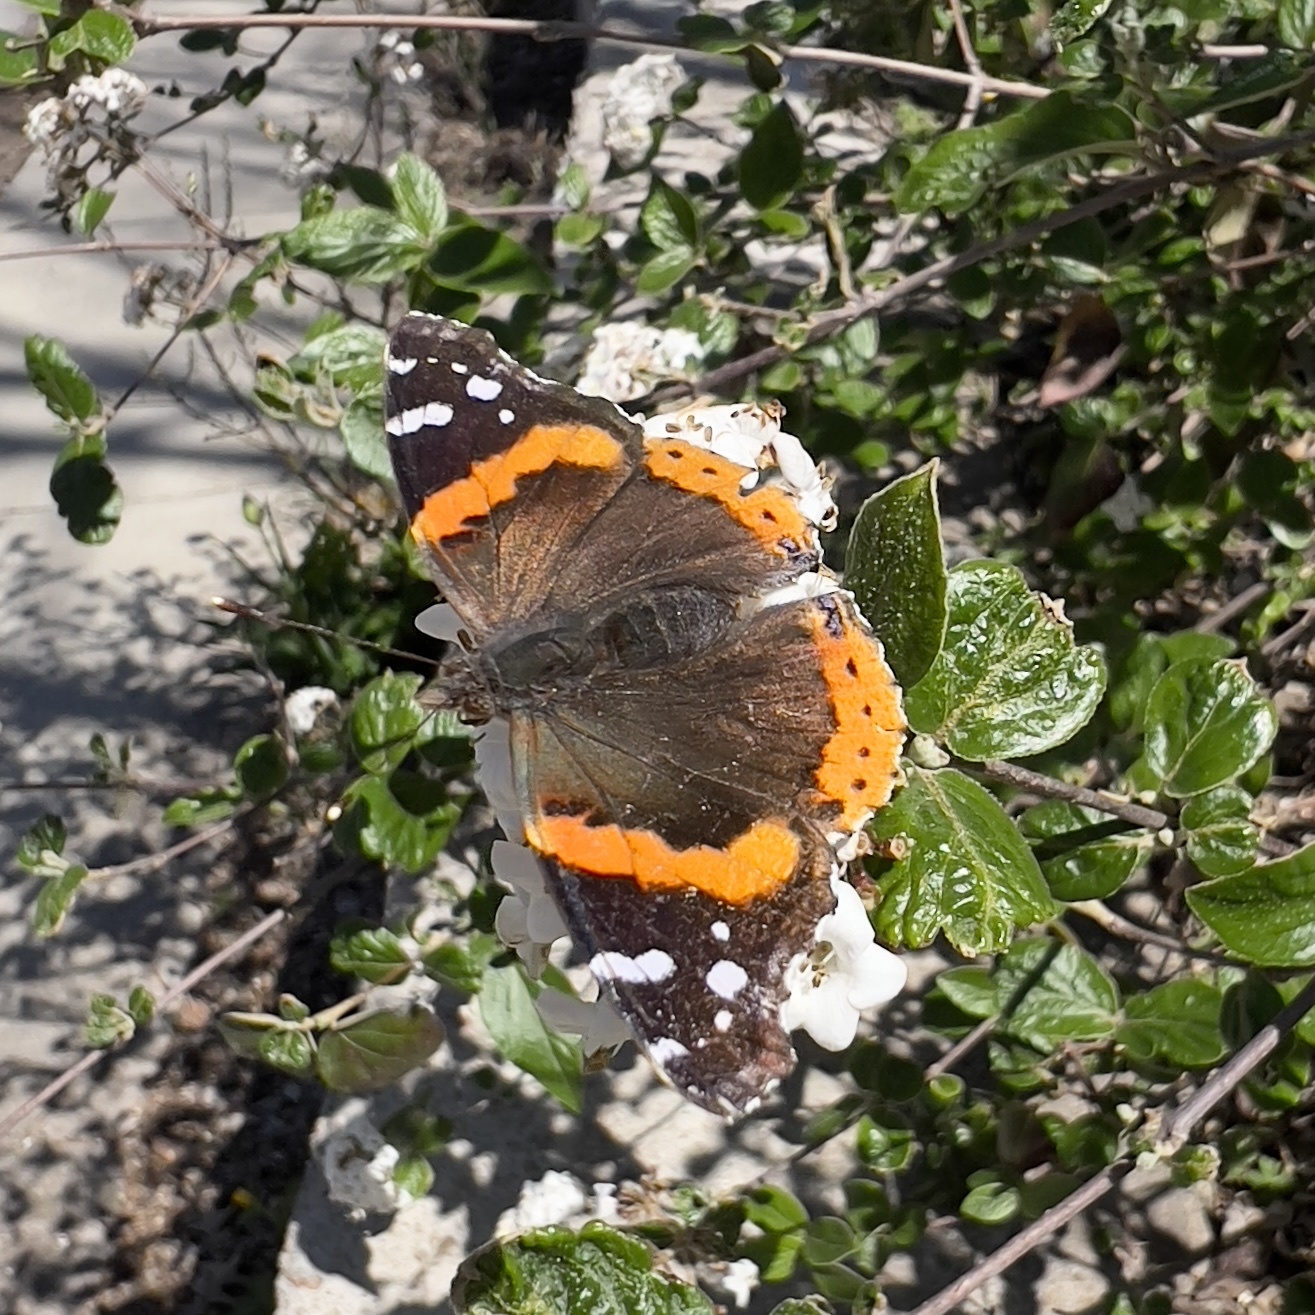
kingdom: Animalia
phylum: Arthropoda
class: Insecta
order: Lepidoptera
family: Nymphalidae
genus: Vanessa
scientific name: Vanessa atalanta
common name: Red admiral
